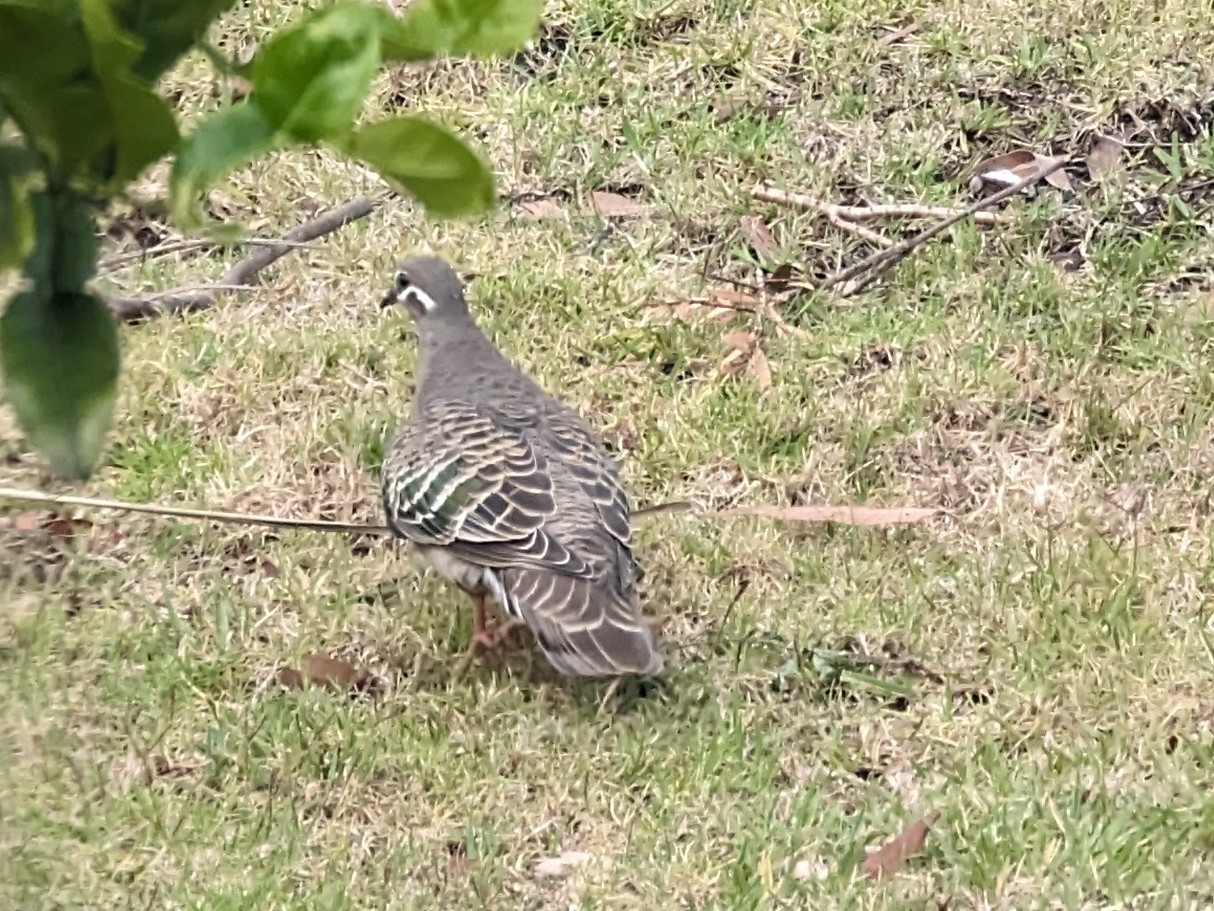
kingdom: Animalia
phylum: Chordata
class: Aves
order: Columbiformes
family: Columbidae
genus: Phaps
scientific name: Phaps chalcoptera
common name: Common bronzewing
